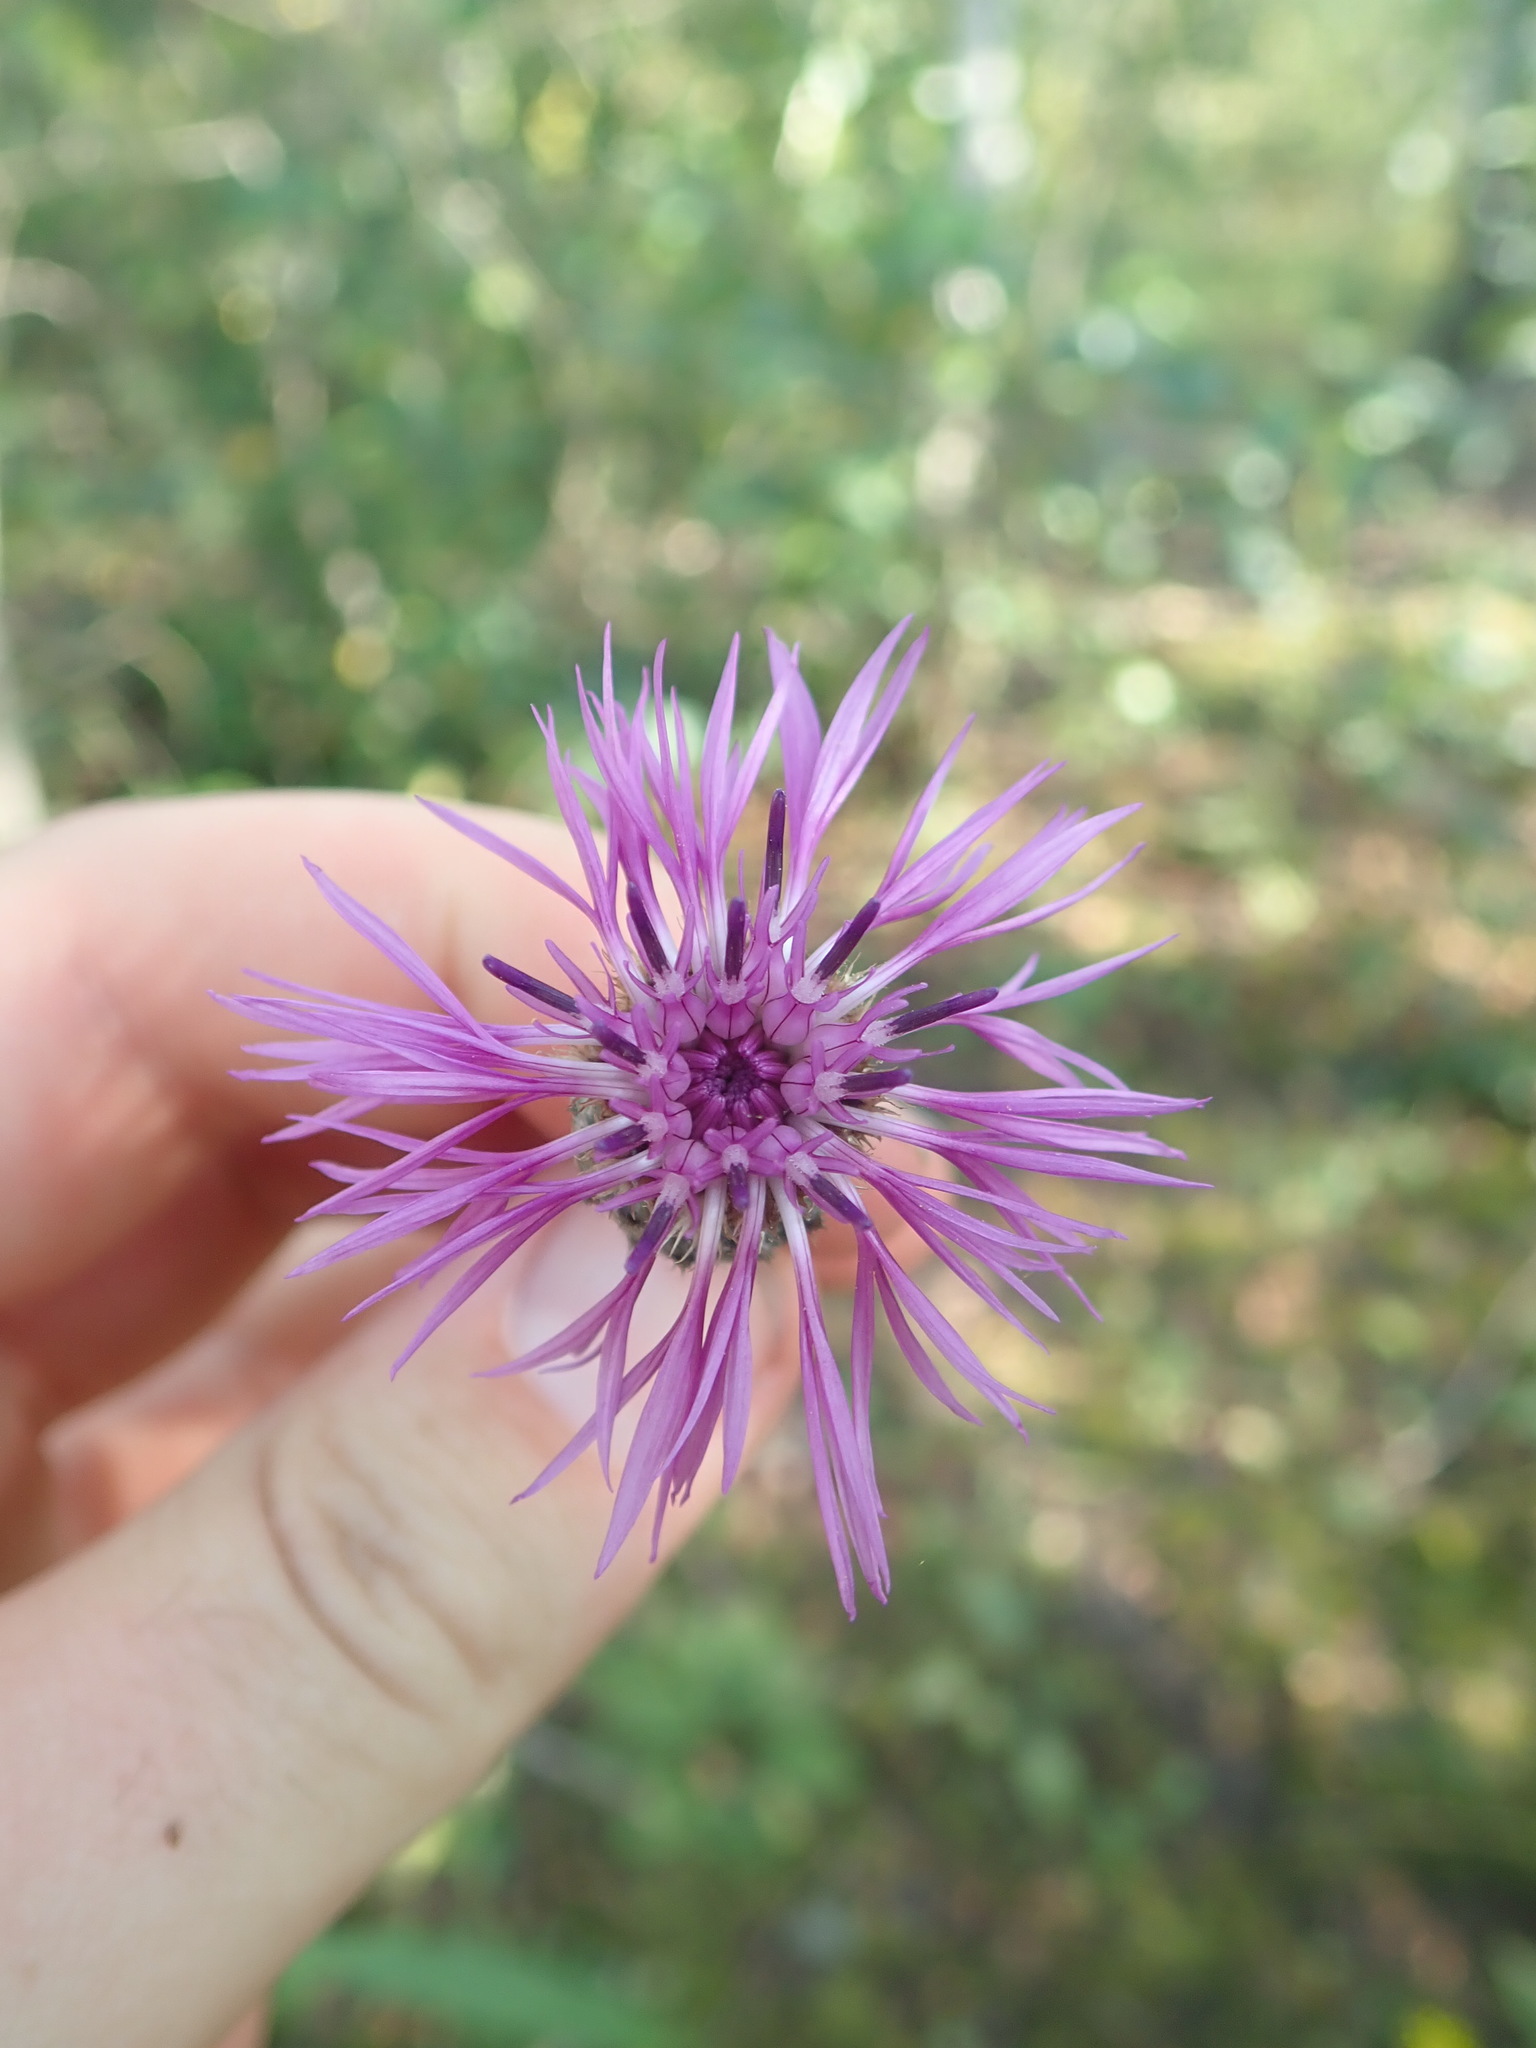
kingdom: Plantae
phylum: Tracheophyta
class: Magnoliopsida
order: Asterales
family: Asteraceae
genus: Centaurea
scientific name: Centaurea scabiosa
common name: Greater knapweed
